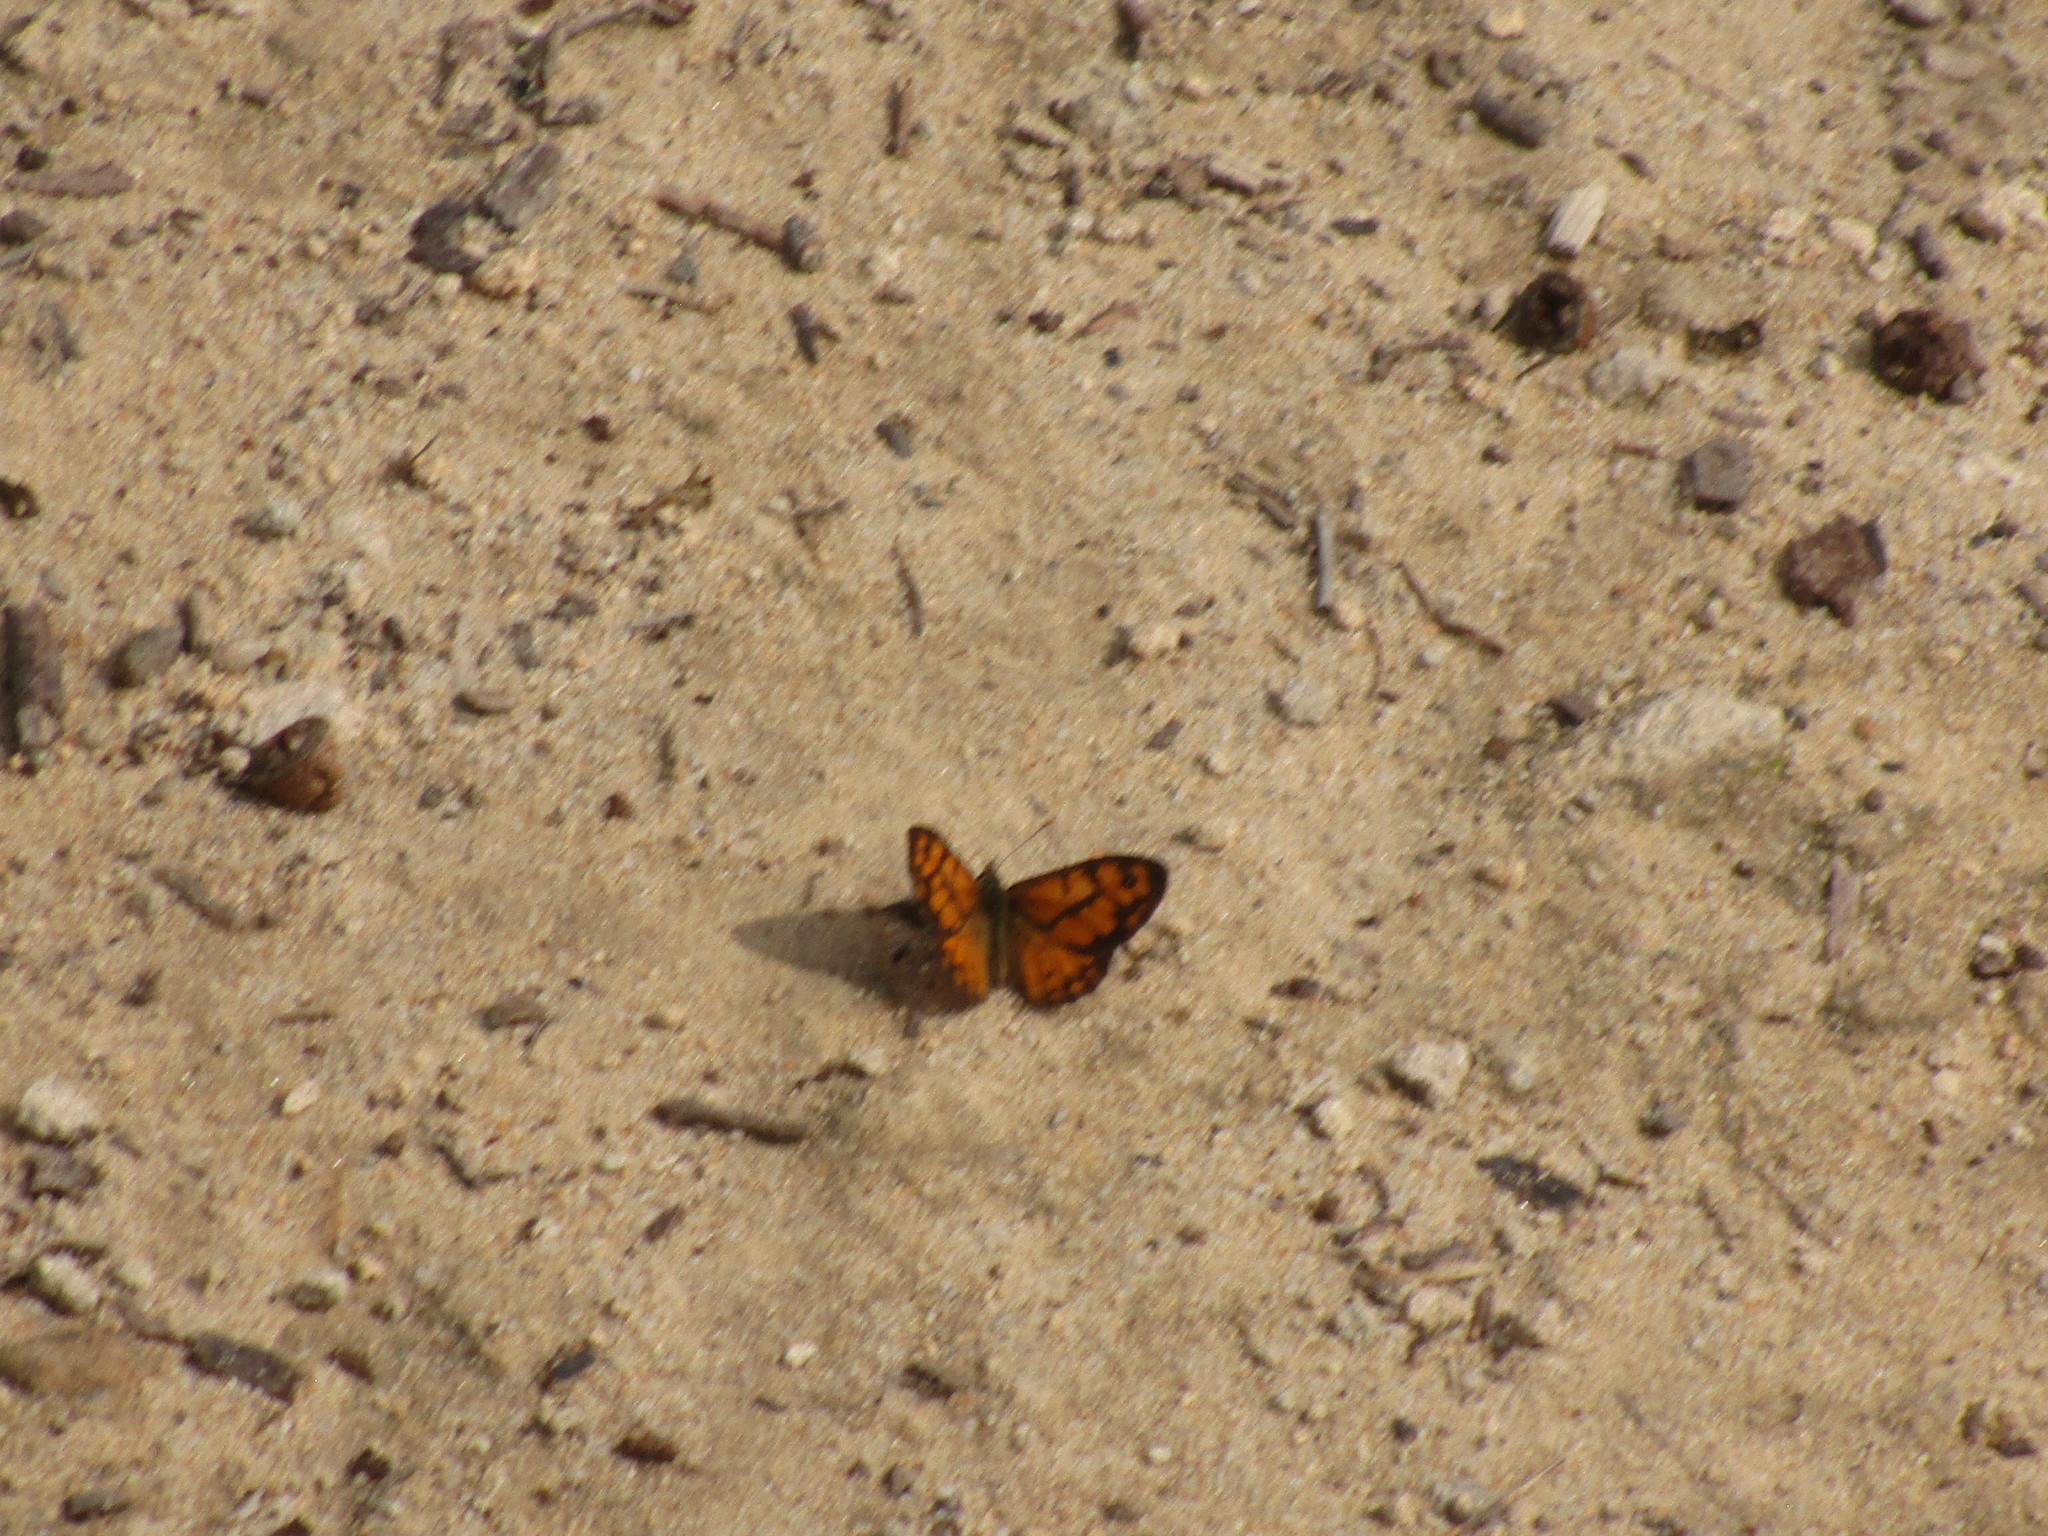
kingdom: Animalia
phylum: Arthropoda
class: Insecta
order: Lepidoptera
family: Nymphalidae
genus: Geitoneura
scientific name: Geitoneura minyas
